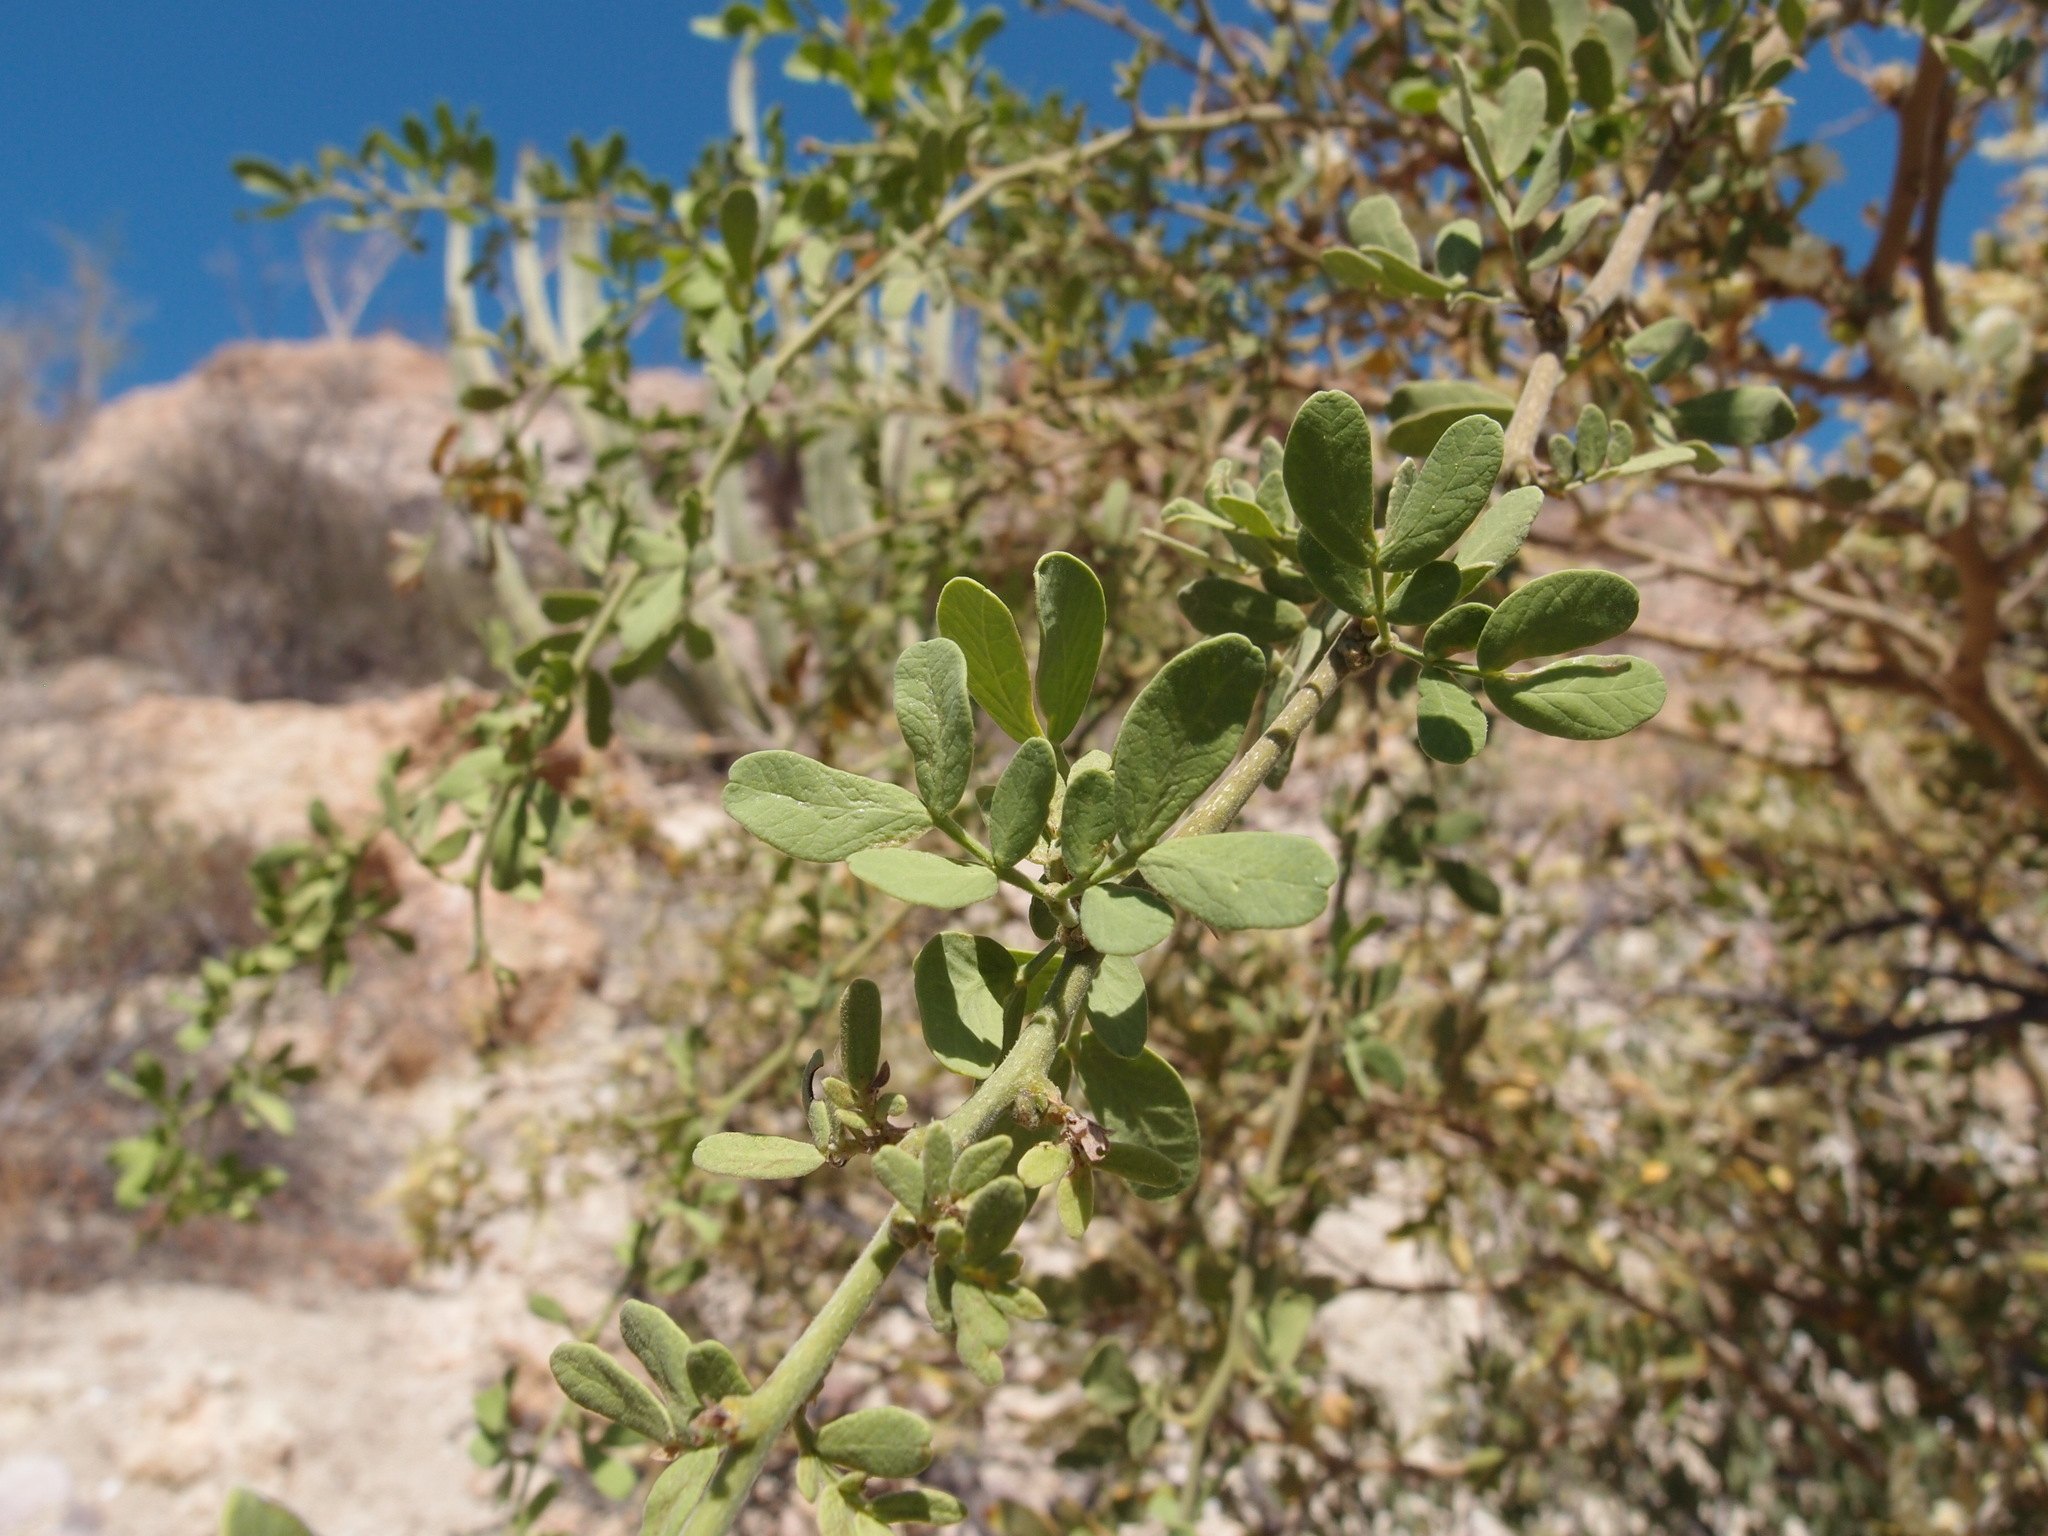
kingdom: Plantae
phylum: Tracheophyta
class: Magnoliopsida
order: Fabales
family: Fabaceae
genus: Vachellia
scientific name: Vachellia californica
